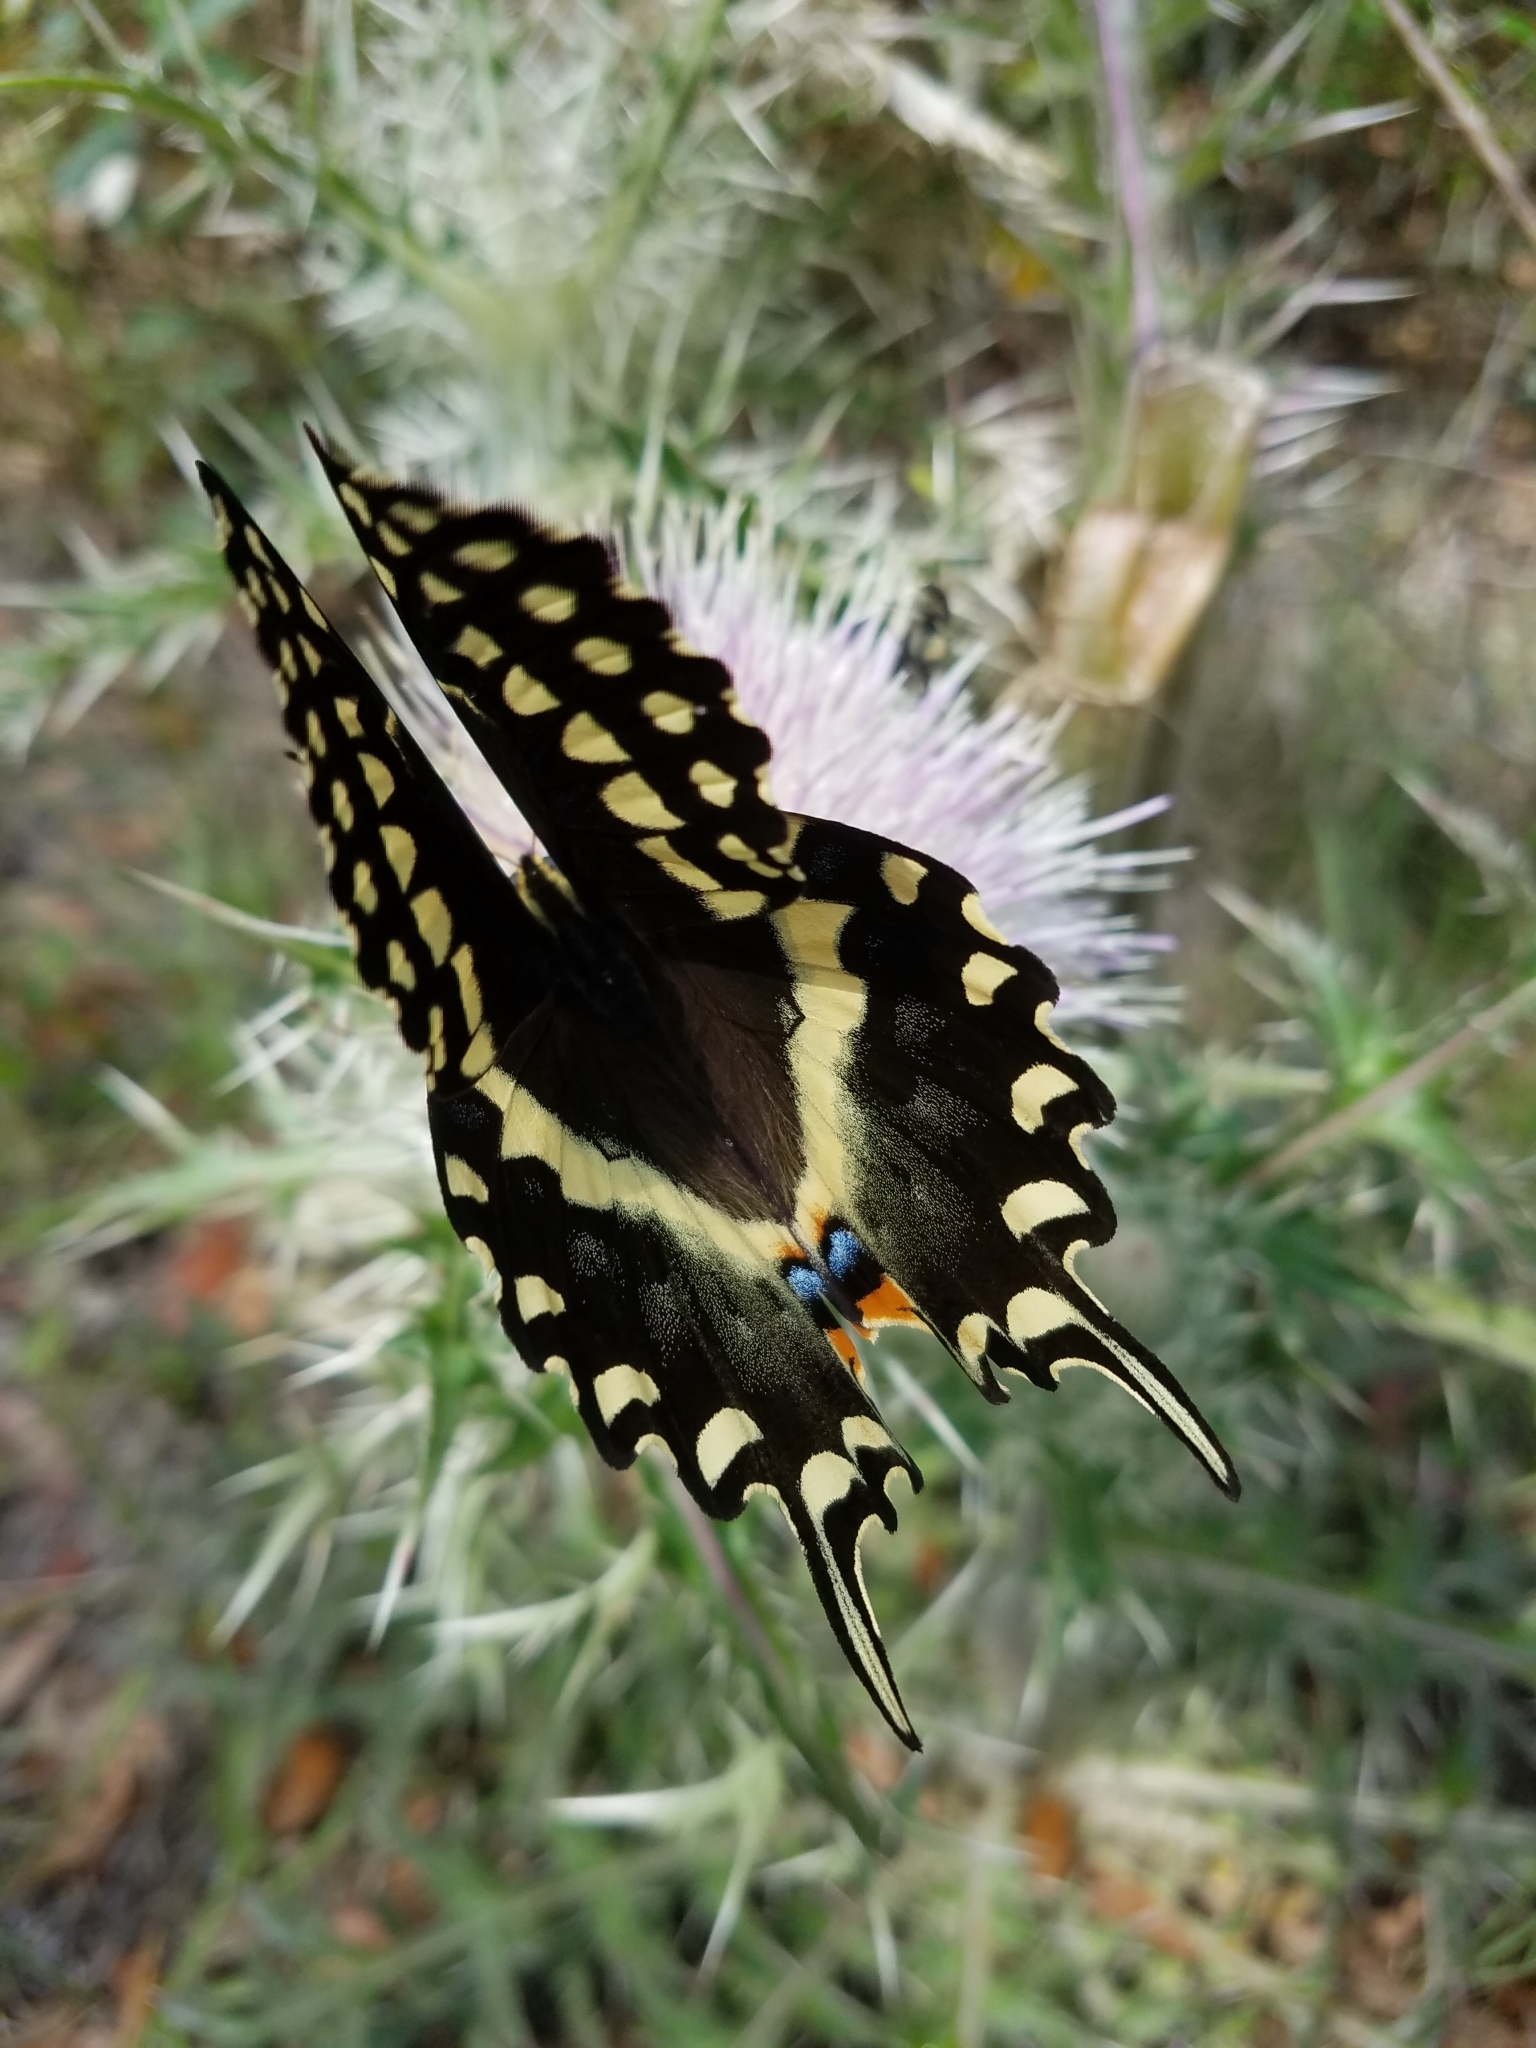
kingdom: Animalia
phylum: Arthropoda
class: Insecta
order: Lepidoptera
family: Papilionidae
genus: Papilio
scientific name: Papilio palamedes
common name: Palamedes swallowtail
